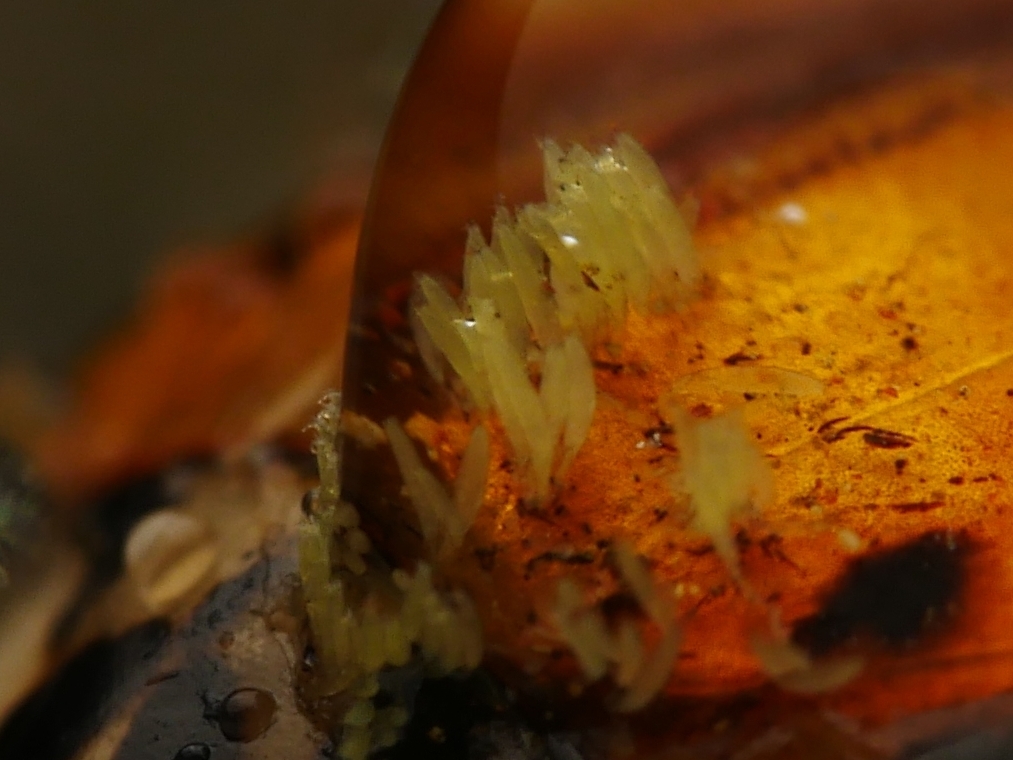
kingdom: Fungi
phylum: Ascomycota
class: Laboulbeniomycetes
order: Laboulbeniales
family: Laboulbeniaceae
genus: Hesperomyces
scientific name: Hesperomyces harmoniae
